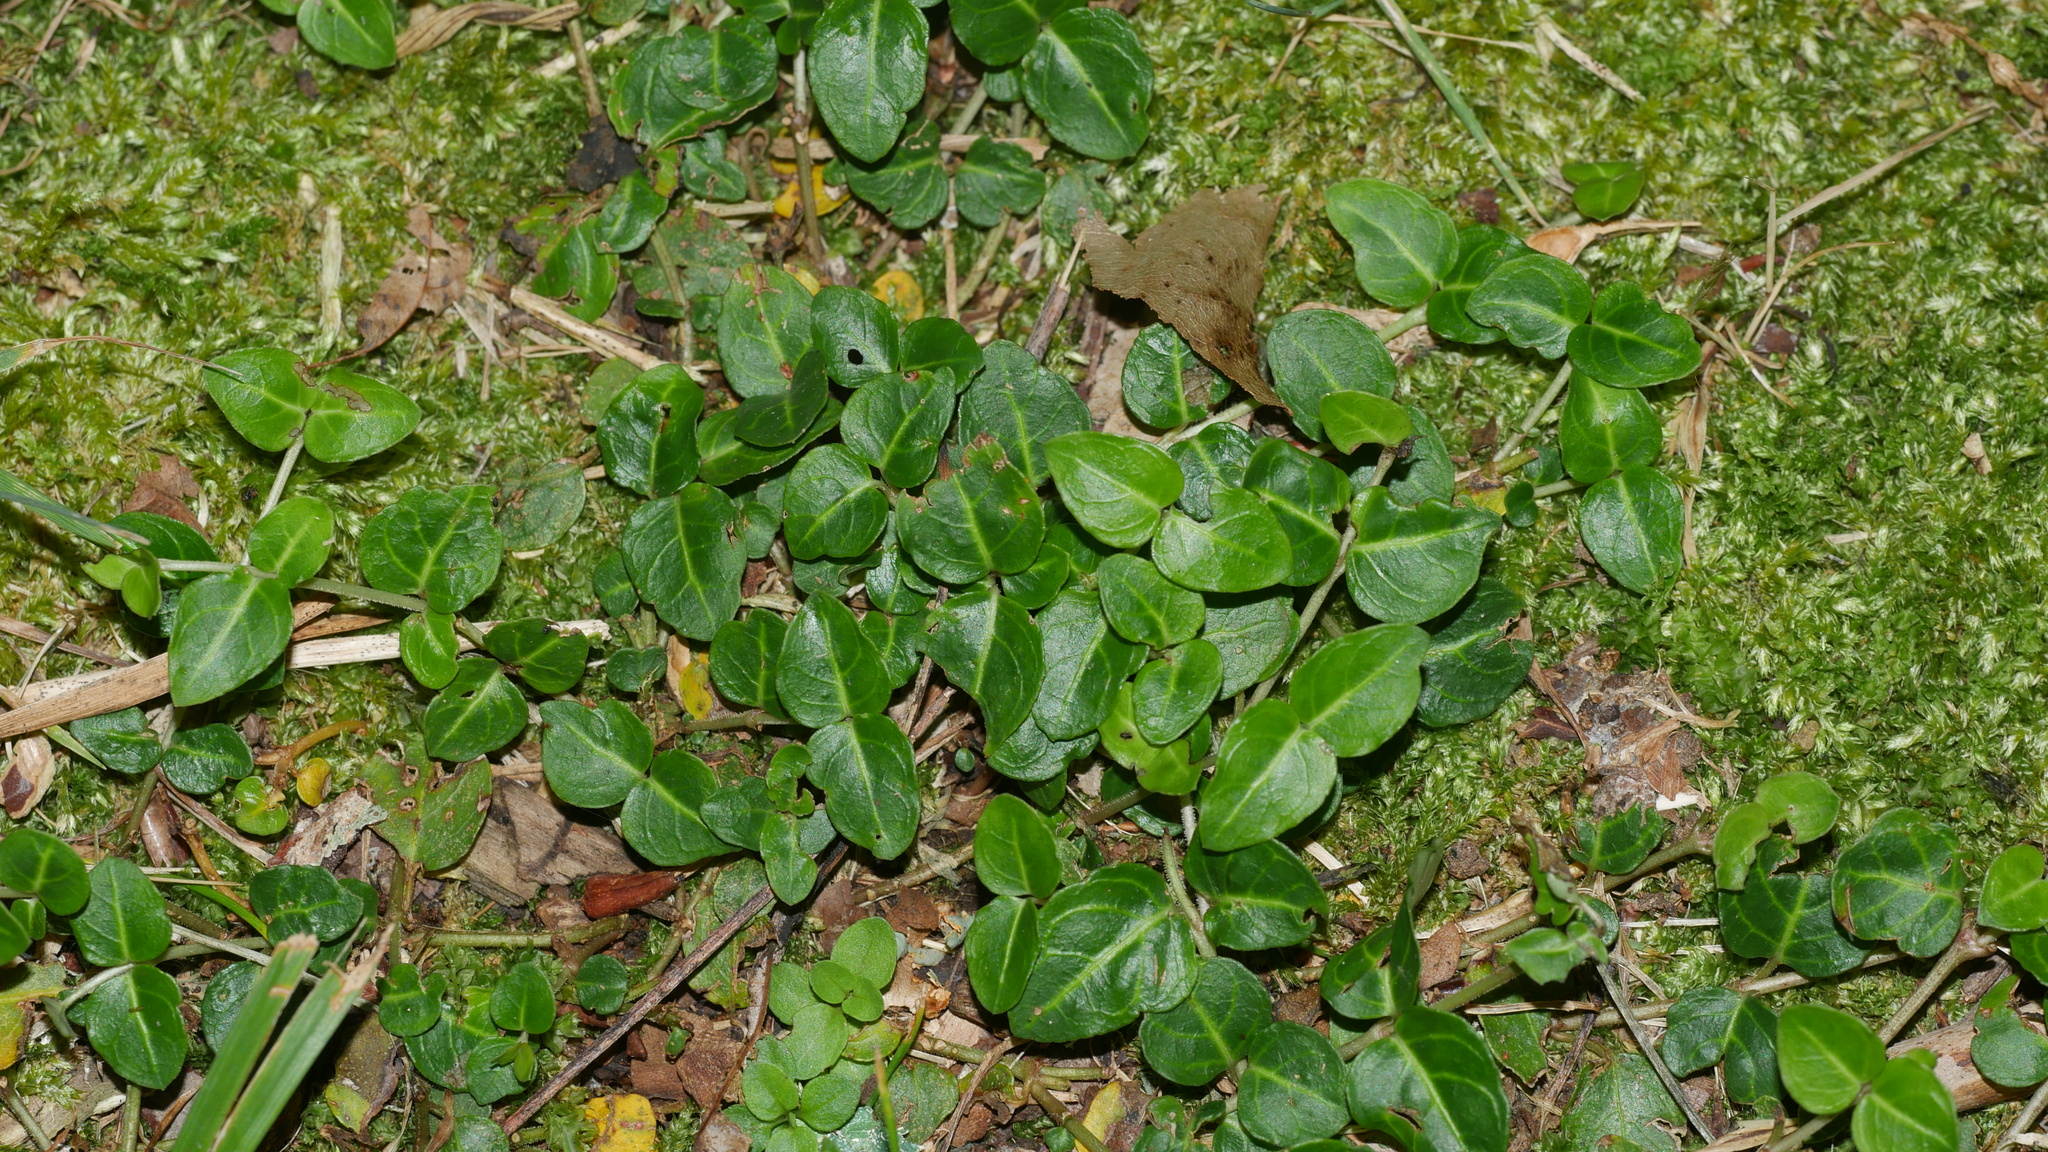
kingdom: Plantae
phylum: Tracheophyta
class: Magnoliopsida
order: Gentianales
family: Rubiaceae
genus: Mitchella
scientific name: Mitchella repens
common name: Partridge-berry
